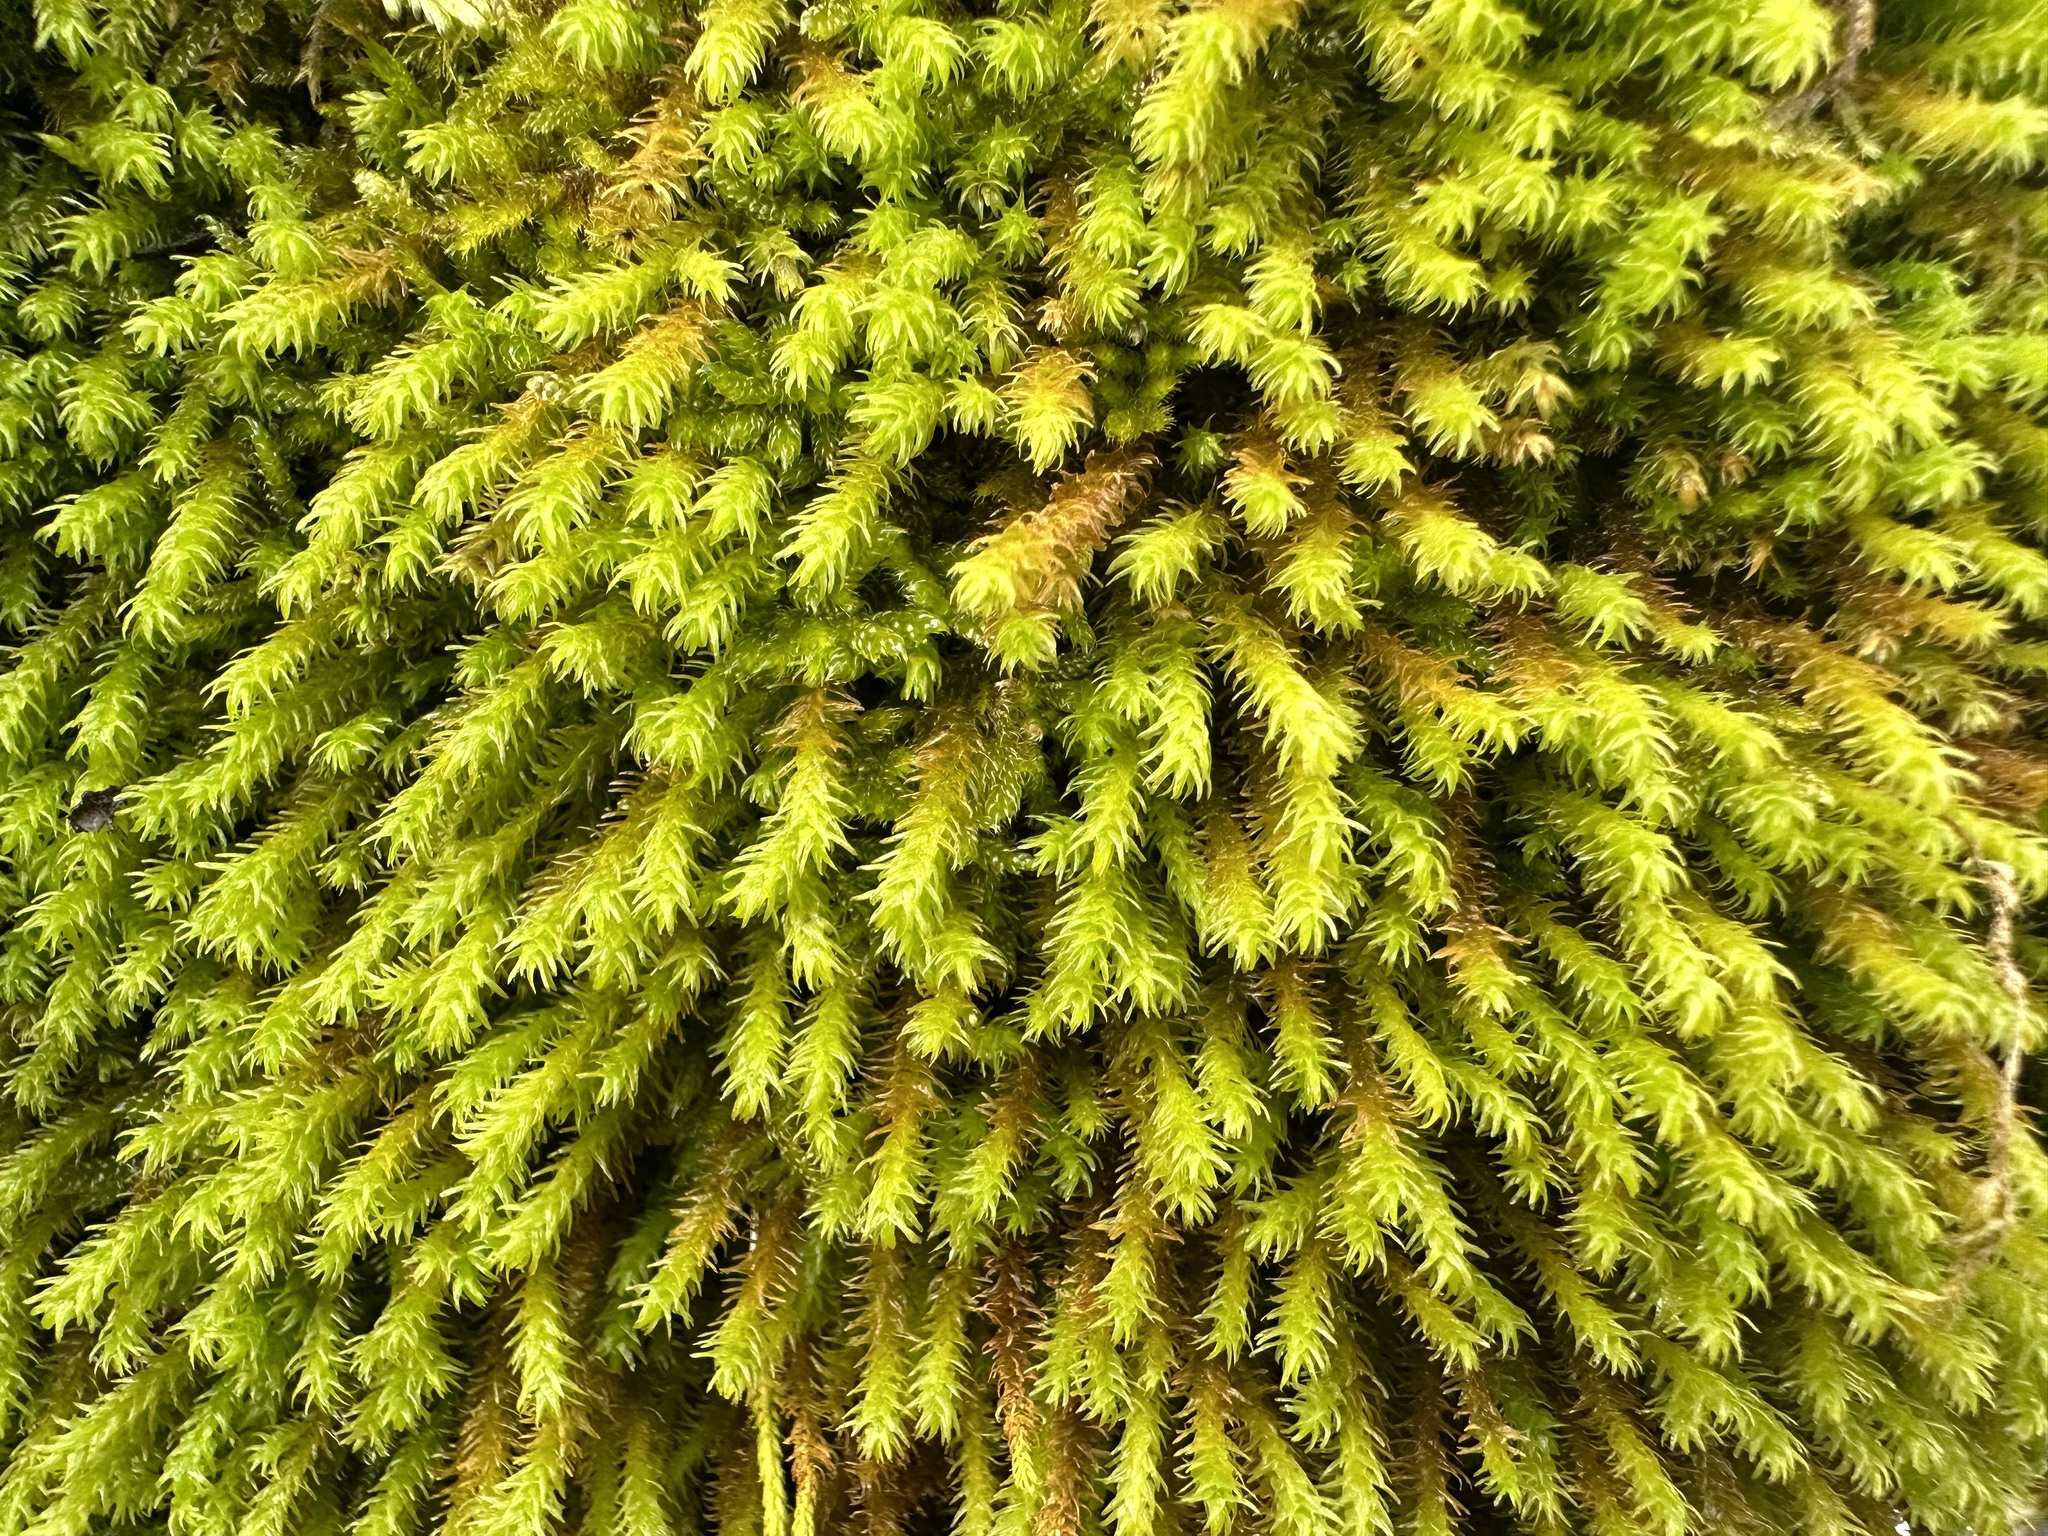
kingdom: Plantae
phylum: Bryophyta
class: Bryopsida
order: Hypnales
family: Anomodontaceae
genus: Anomodon
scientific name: Anomodon viticulosus
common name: Tall anomodon
